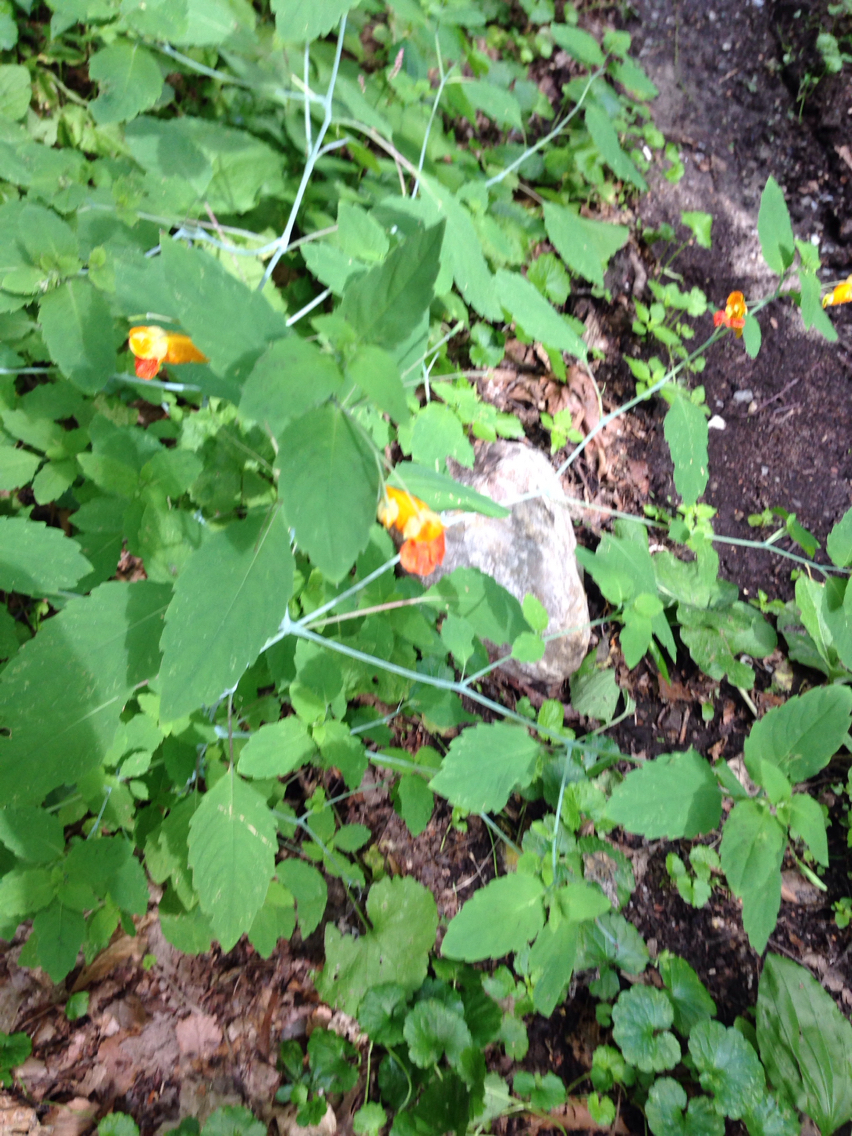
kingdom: Plantae
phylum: Tracheophyta
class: Magnoliopsida
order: Ericales
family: Balsaminaceae
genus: Impatiens
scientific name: Impatiens capensis
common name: Orange balsam
